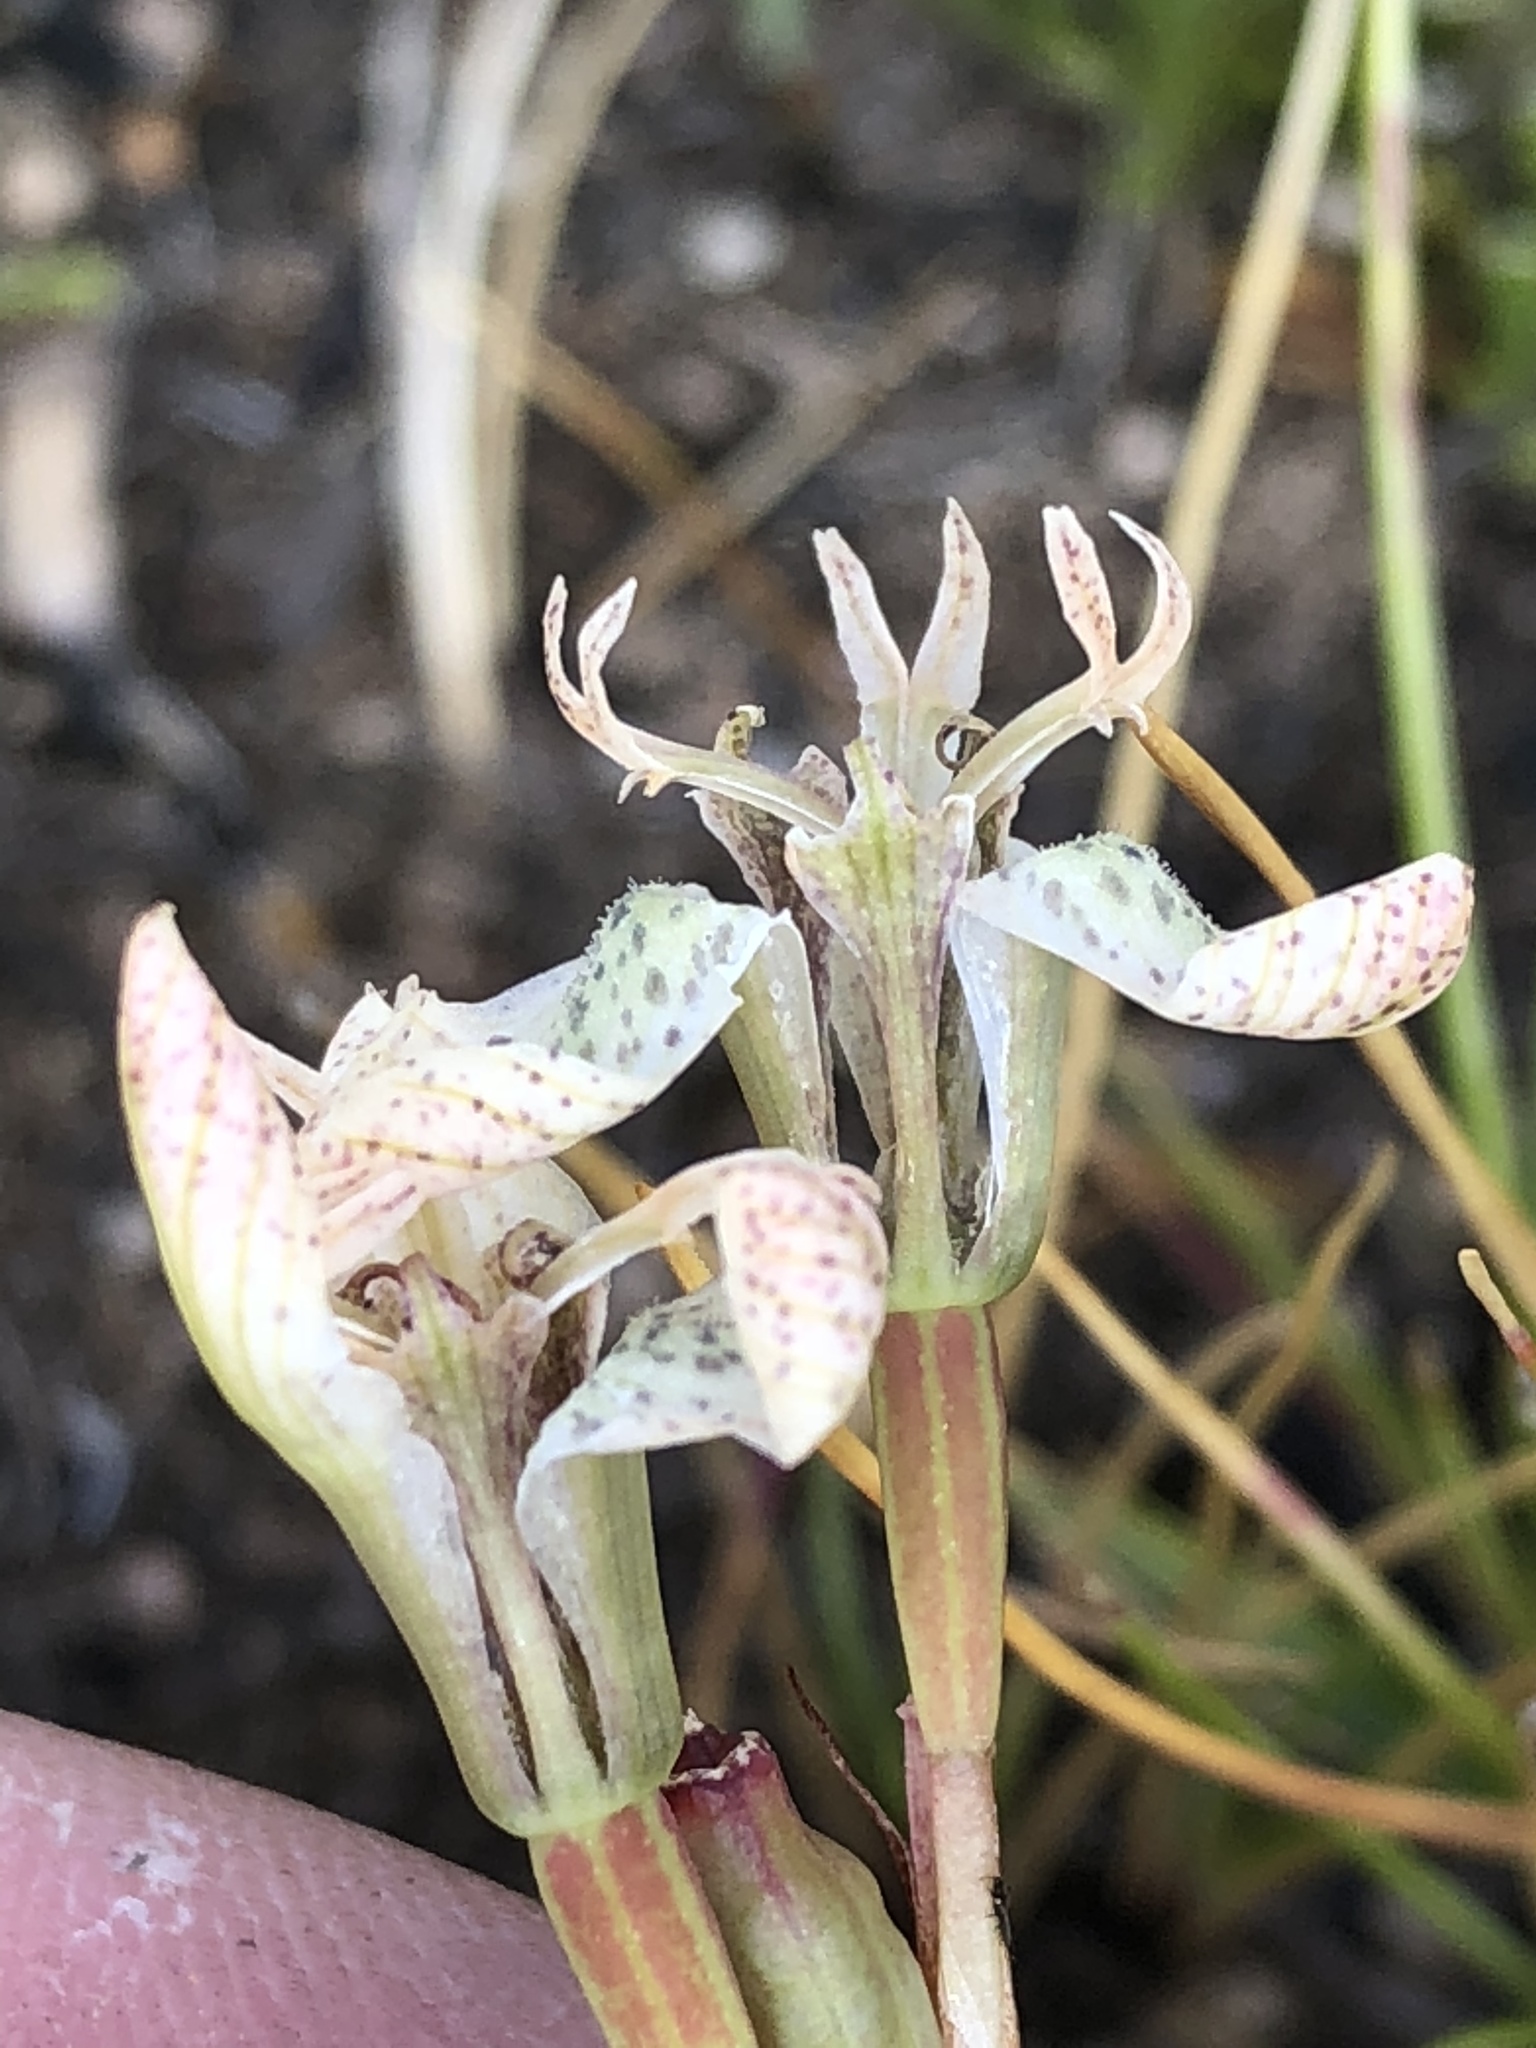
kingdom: Plantae
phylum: Tracheophyta
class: Liliopsida
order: Asparagales
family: Iridaceae
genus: Moraea
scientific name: Moraea unguiculata
